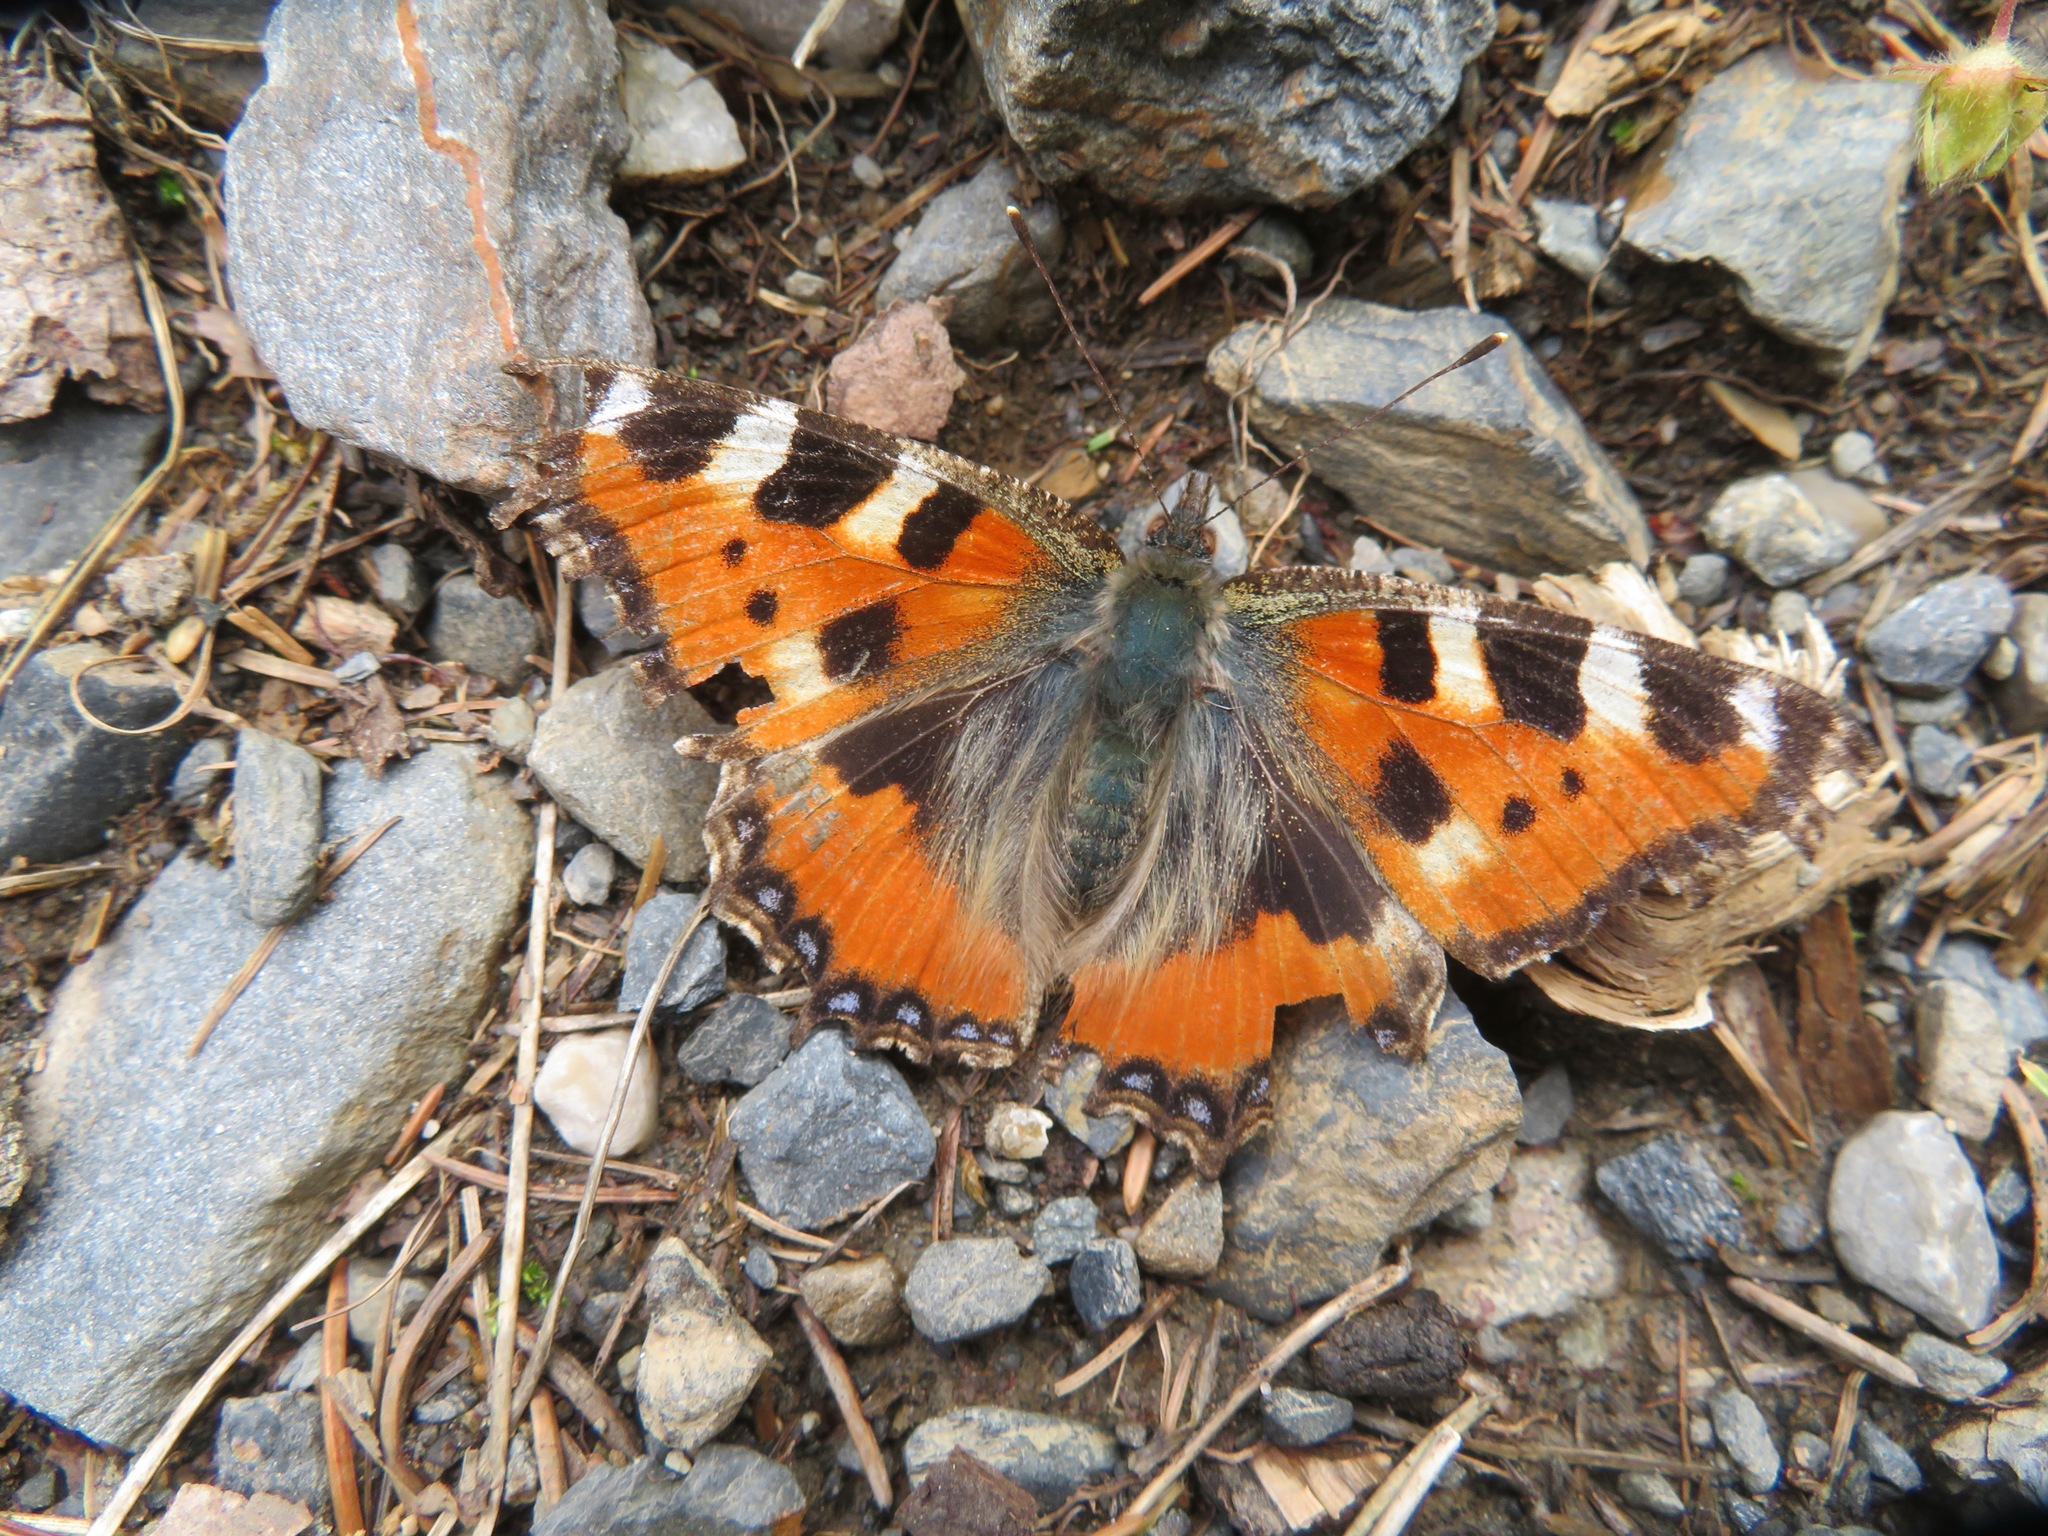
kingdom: Animalia
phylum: Arthropoda
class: Insecta
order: Lepidoptera
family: Nymphalidae
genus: Aglais
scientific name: Aglais urticae
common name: Small tortoiseshell
